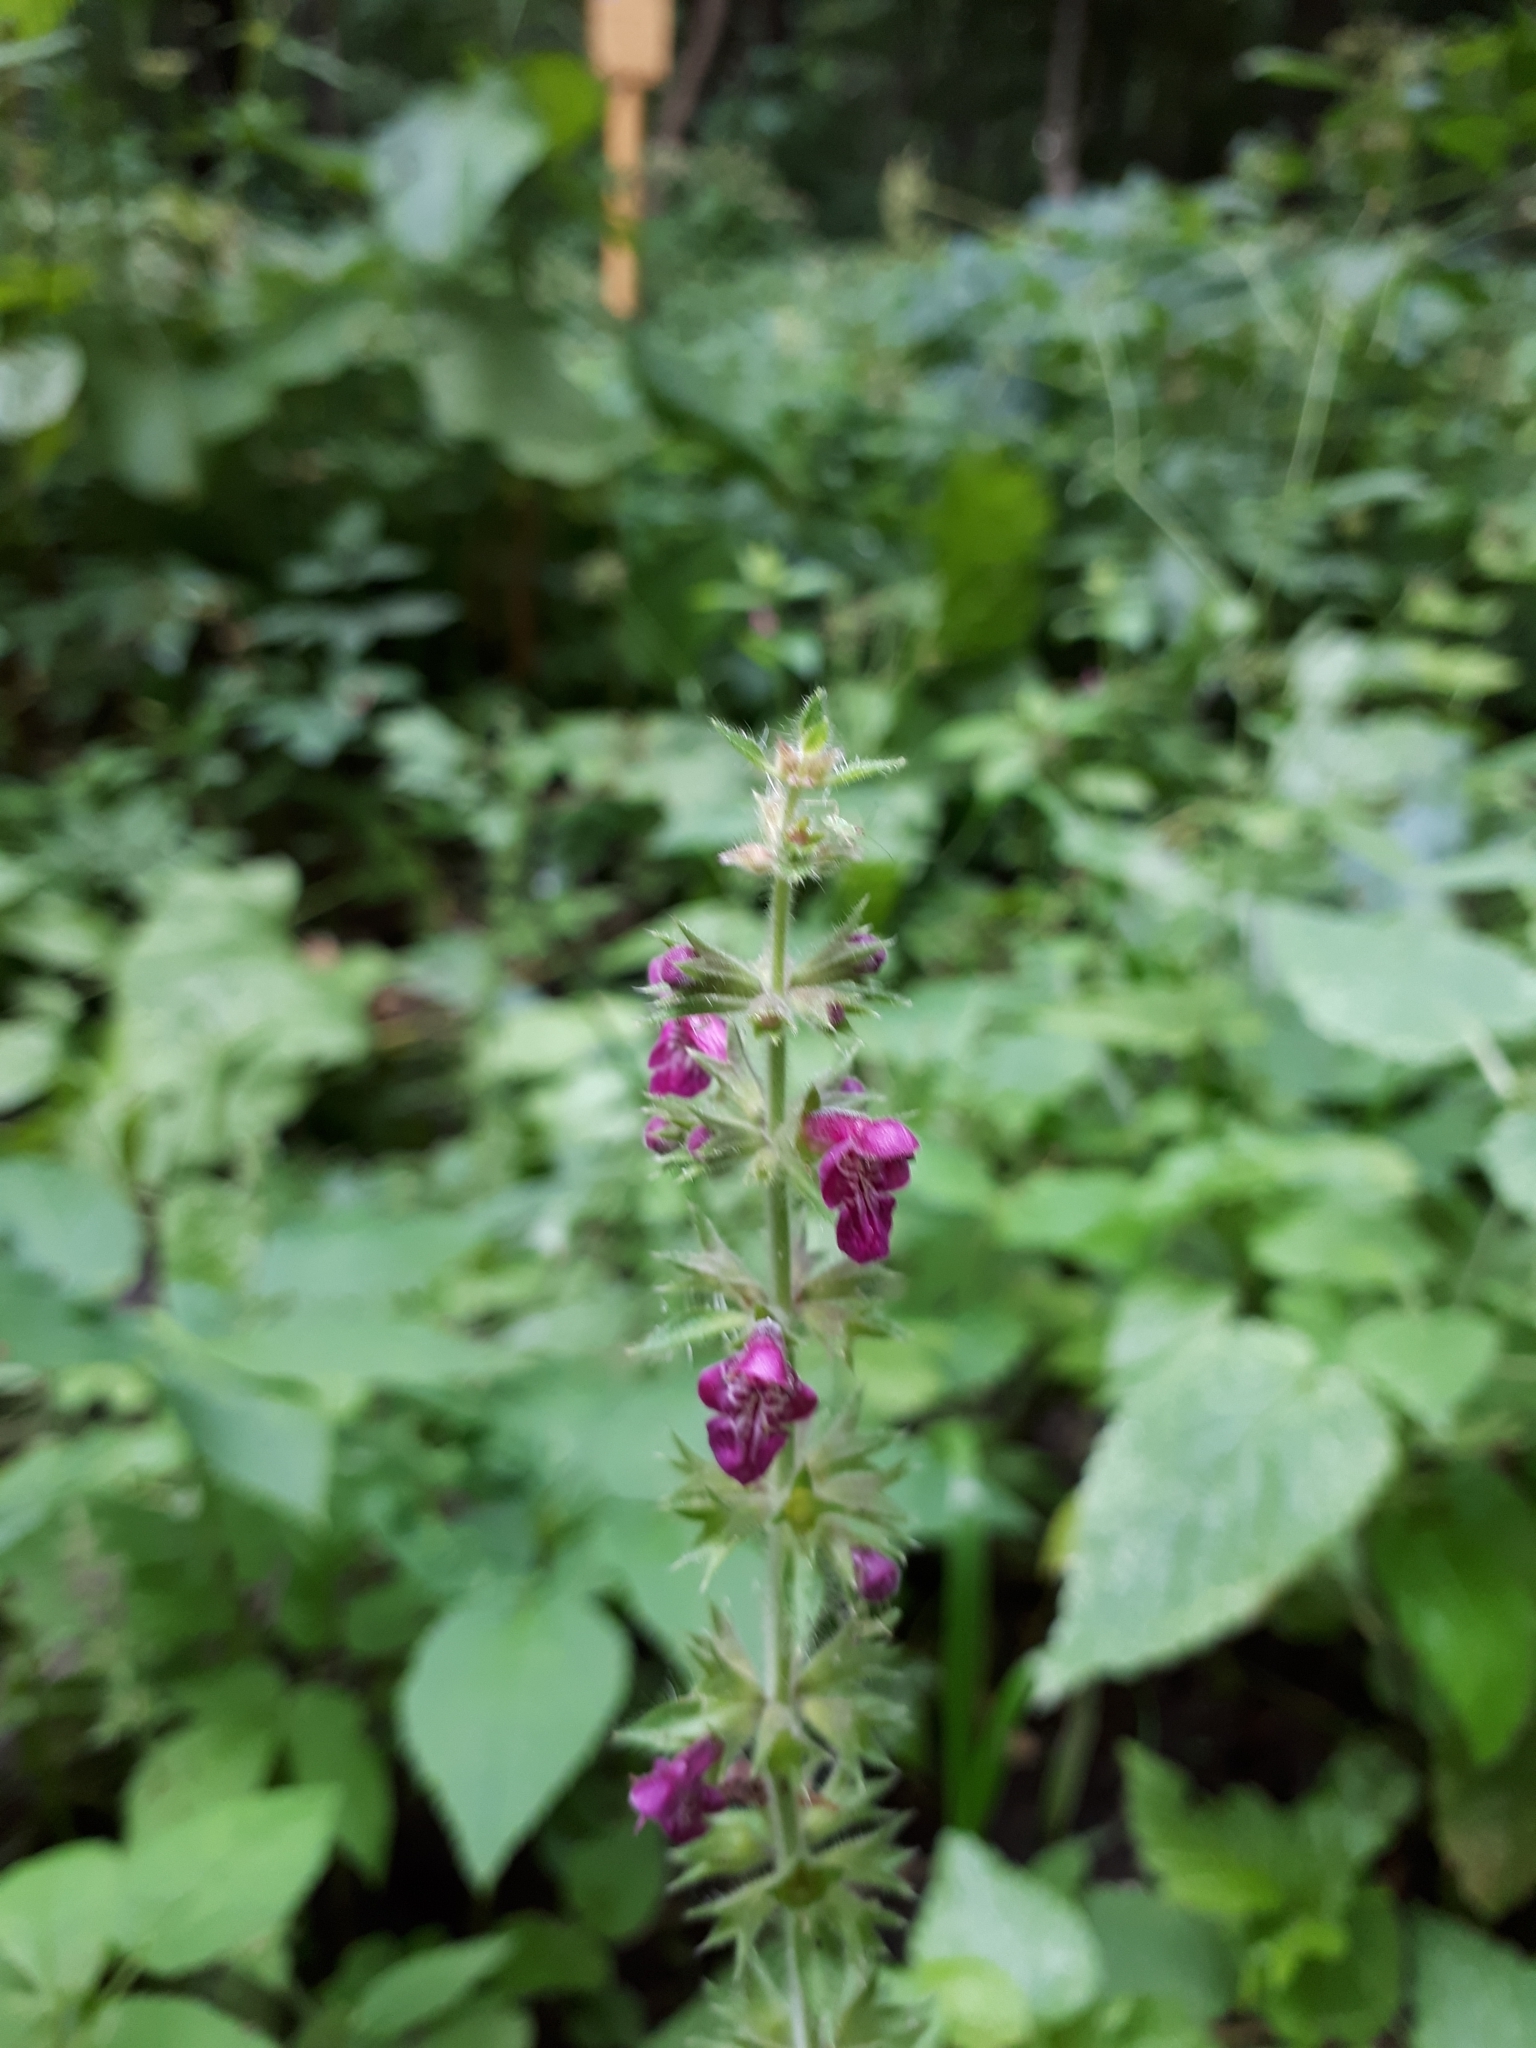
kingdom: Plantae
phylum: Tracheophyta
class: Magnoliopsida
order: Lamiales
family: Lamiaceae
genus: Stachys
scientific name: Stachys sylvatica
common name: Hedge woundwort
